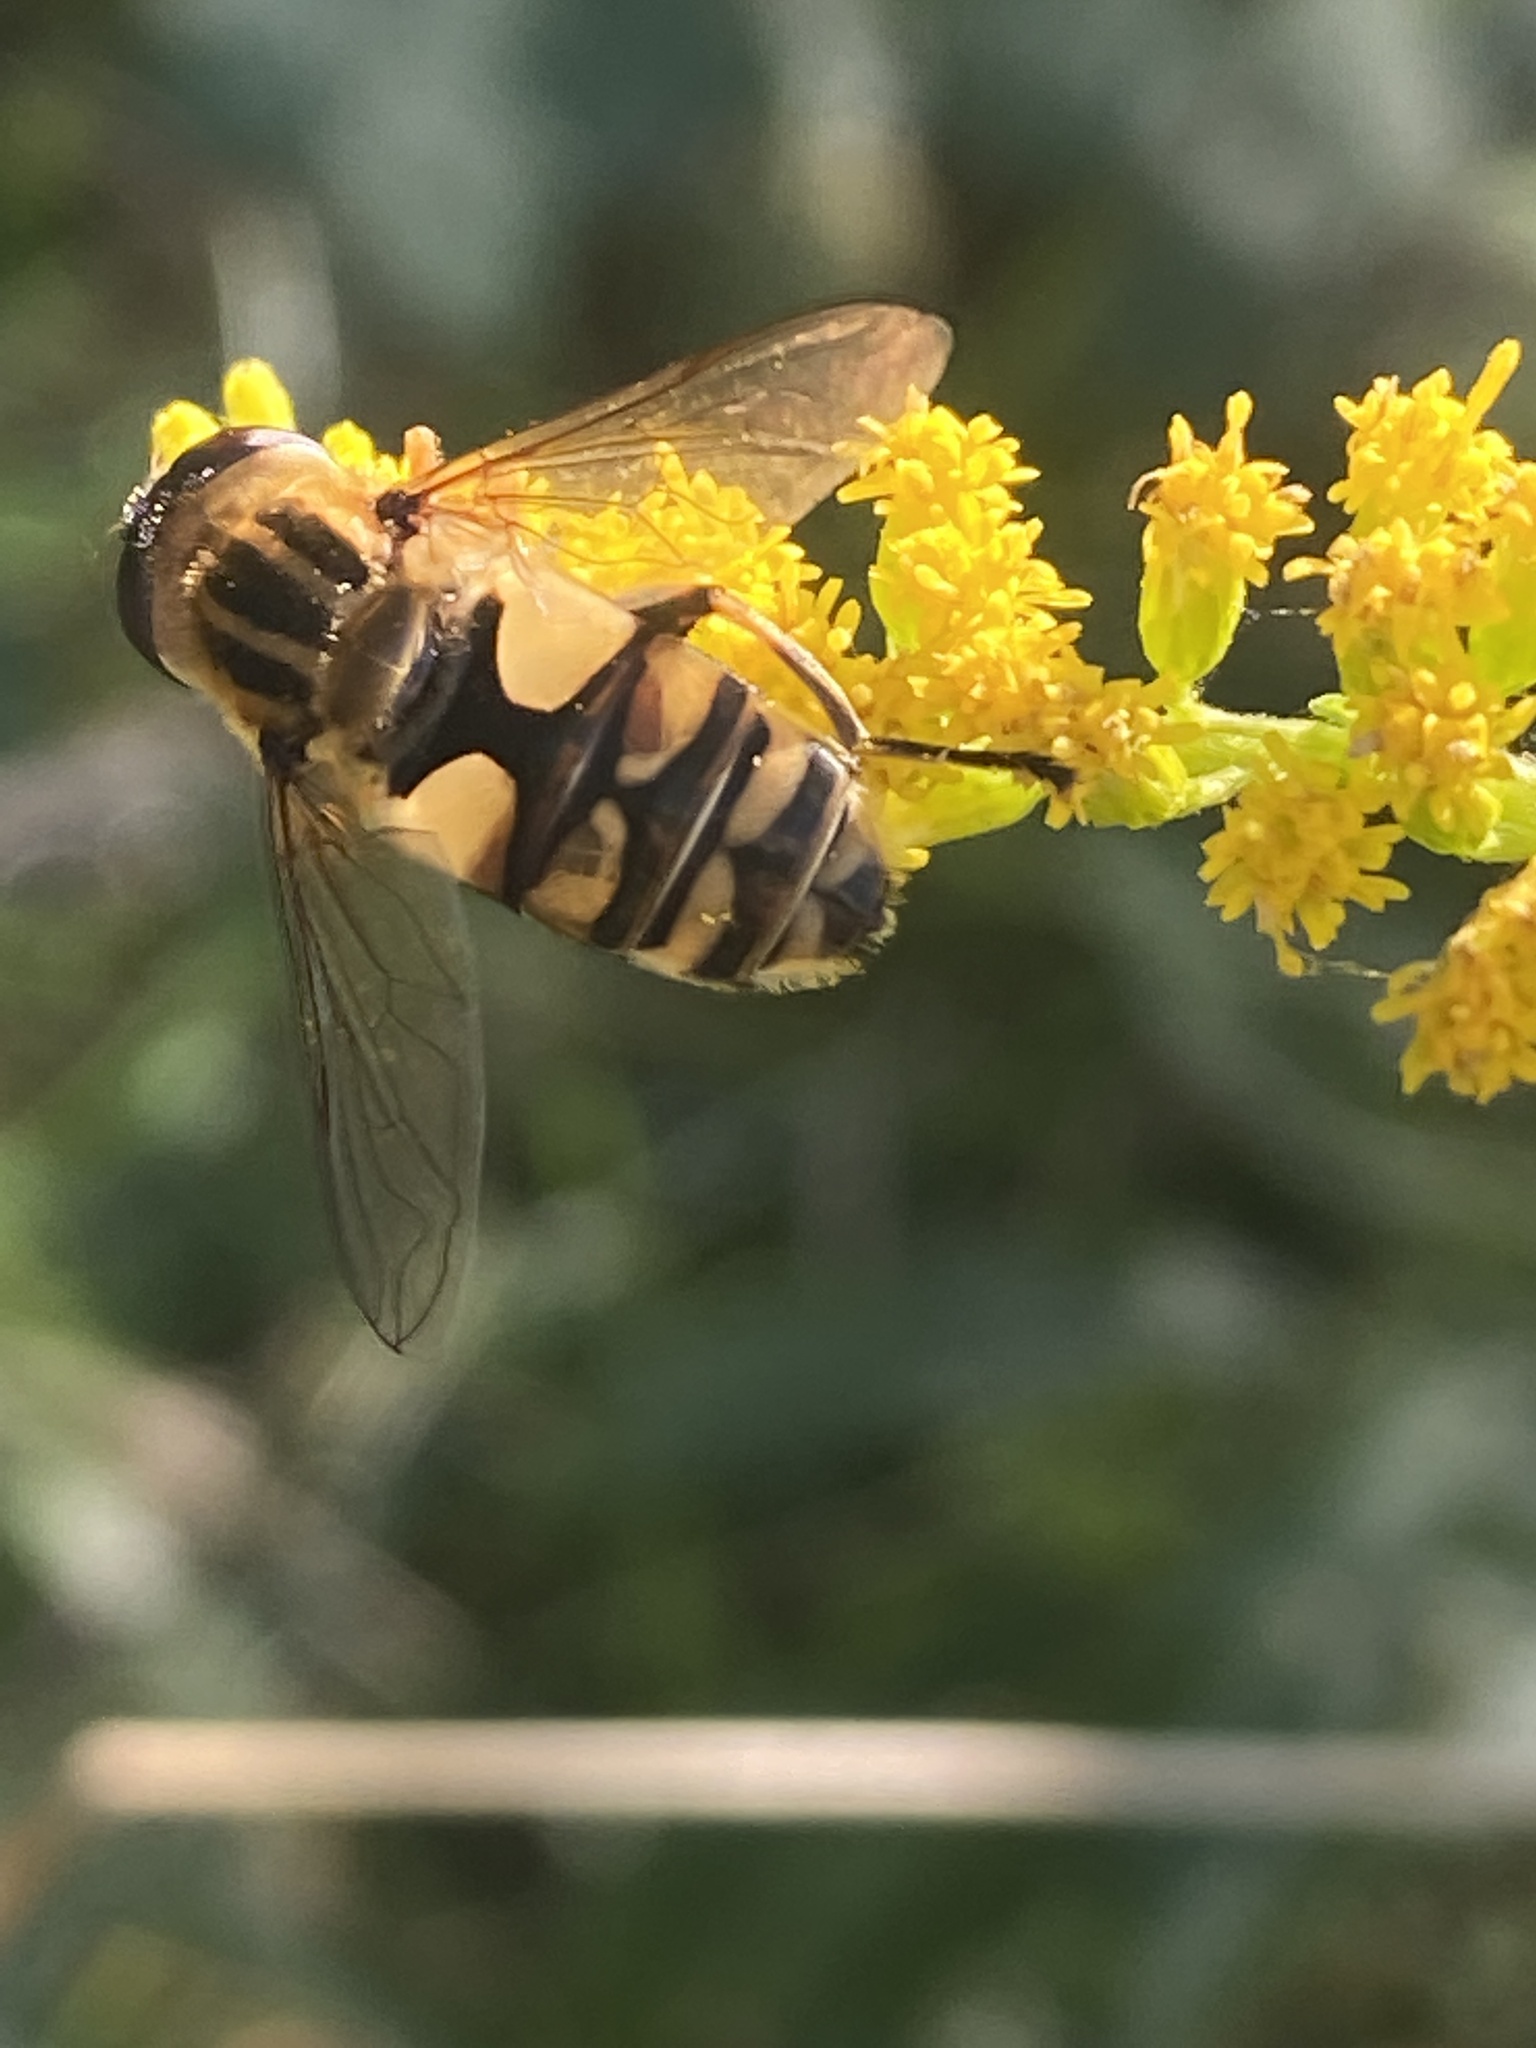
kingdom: Animalia
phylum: Arthropoda
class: Insecta
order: Diptera
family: Syrphidae
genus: Helophilus
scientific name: Helophilus hybridus
